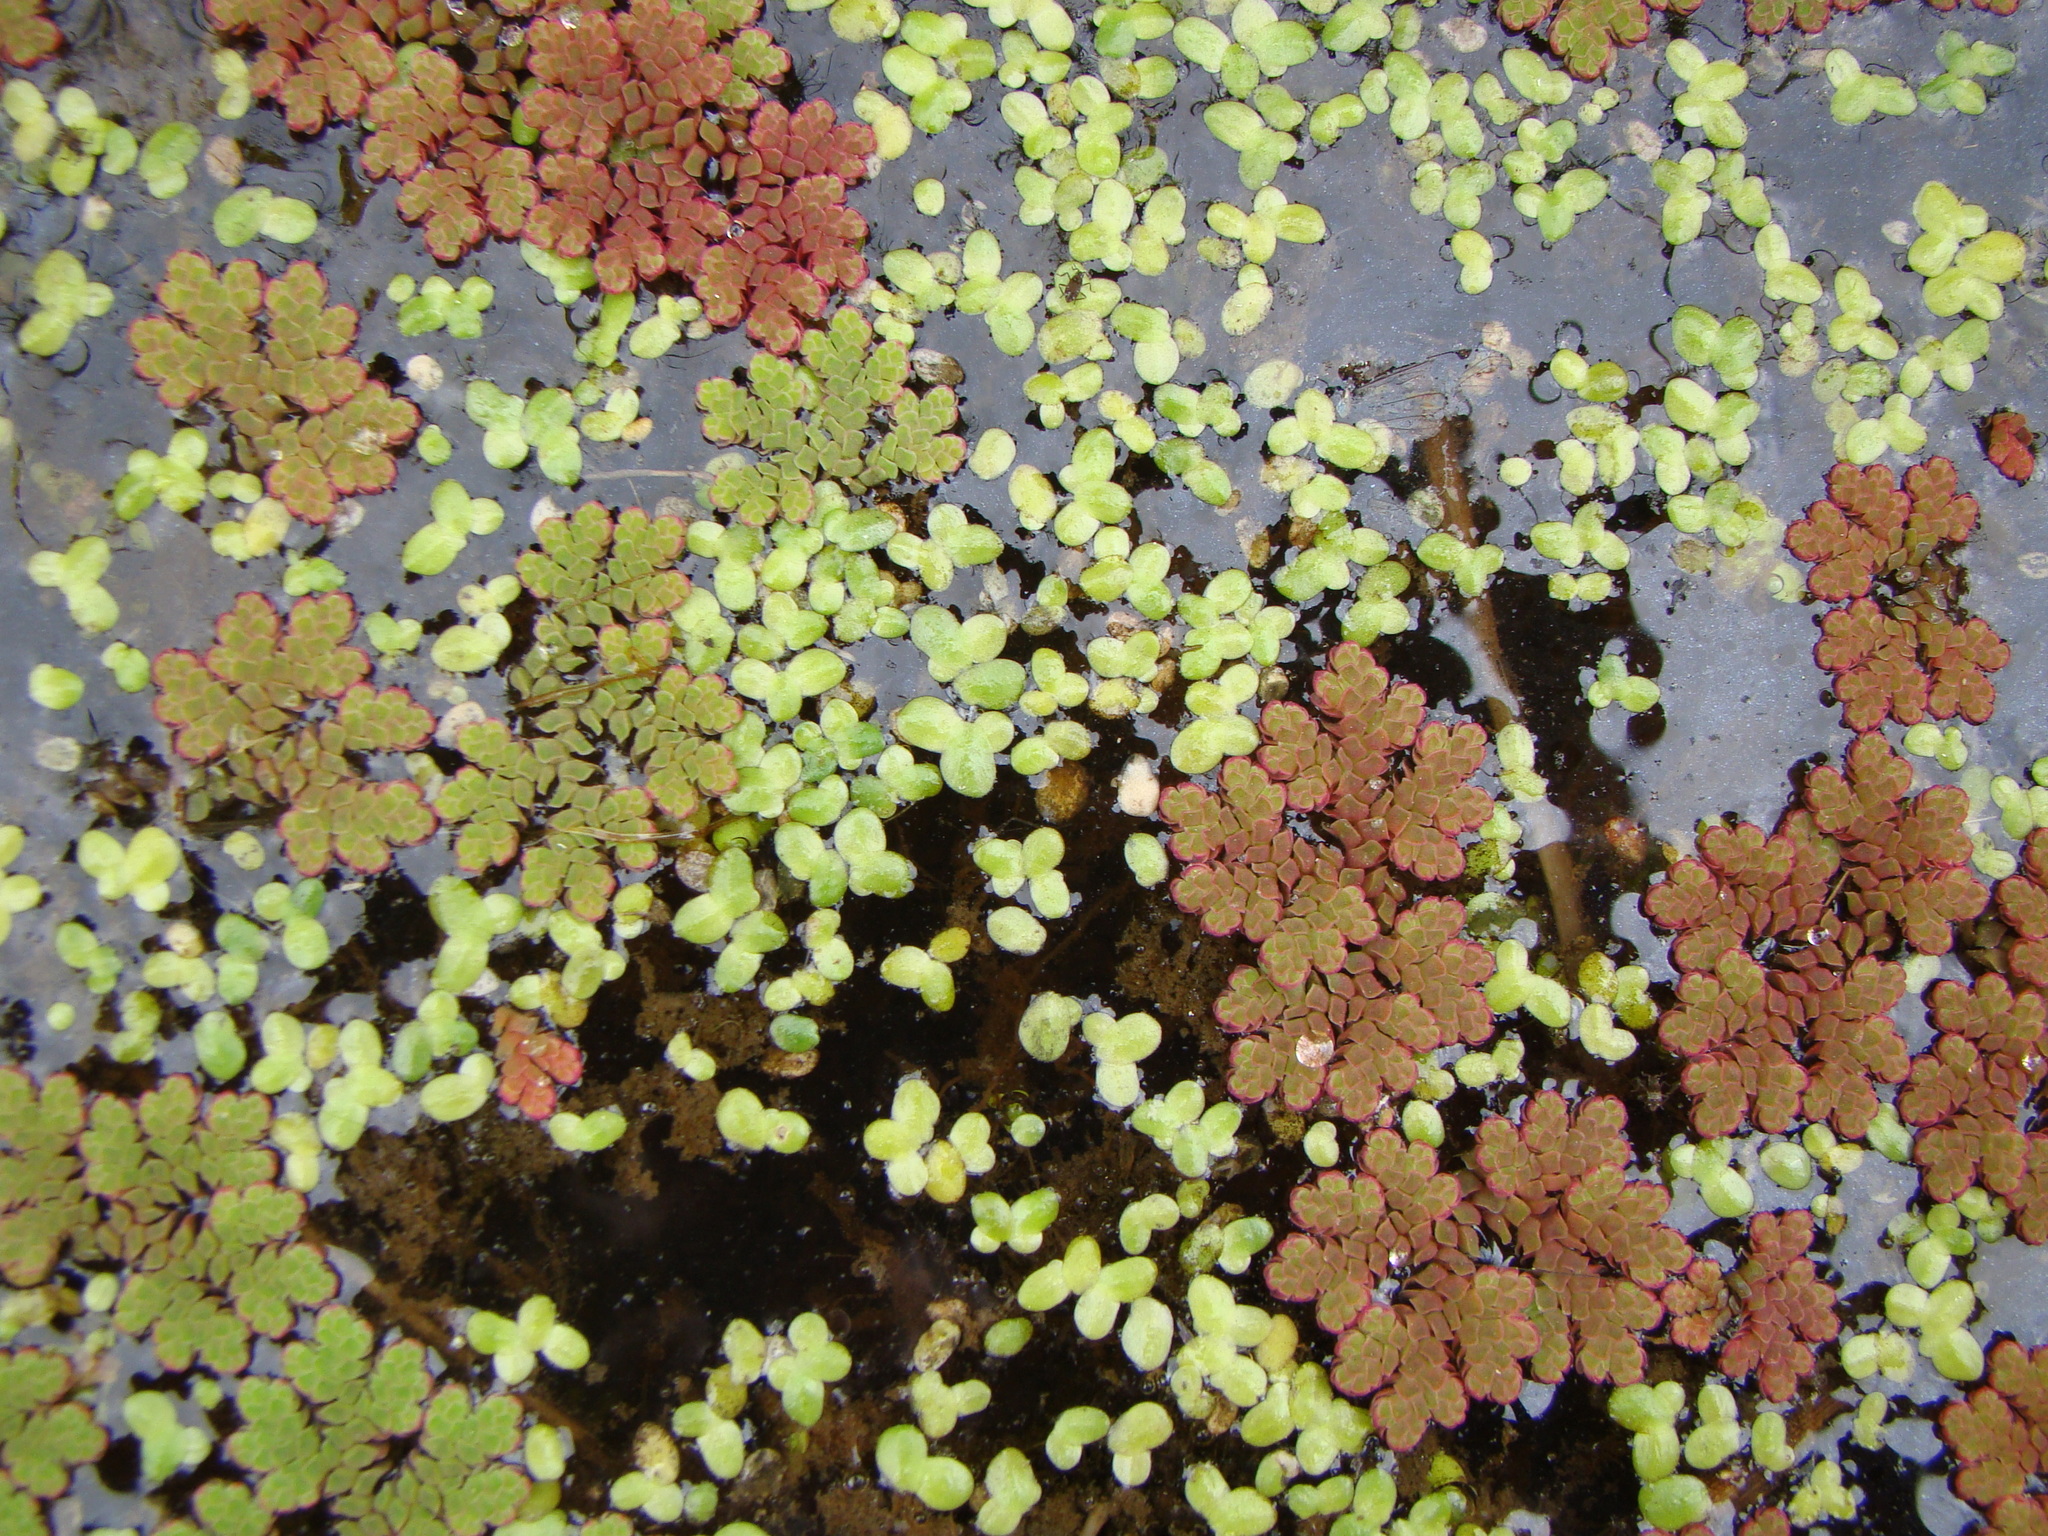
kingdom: Plantae
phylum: Tracheophyta
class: Polypodiopsida
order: Salviniales
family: Salviniaceae
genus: Azolla
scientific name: Azolla rubra
